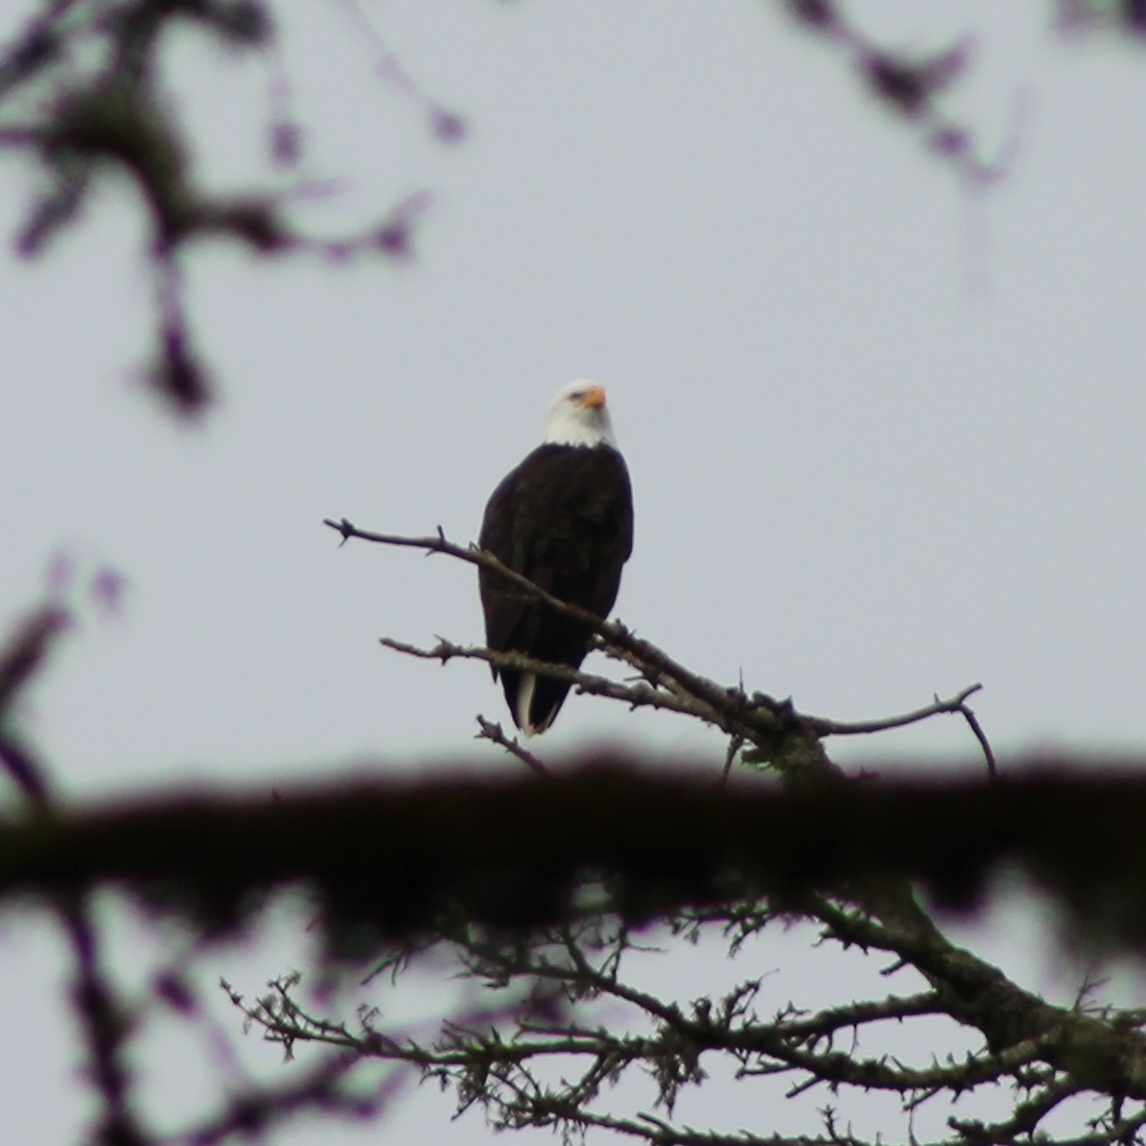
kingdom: Animalia
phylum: Chordata
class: Aves
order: Accipitriformes
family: Accipitridae
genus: Haliaeetus
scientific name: Haliaeetus leucocephalus
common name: Bald eagle
